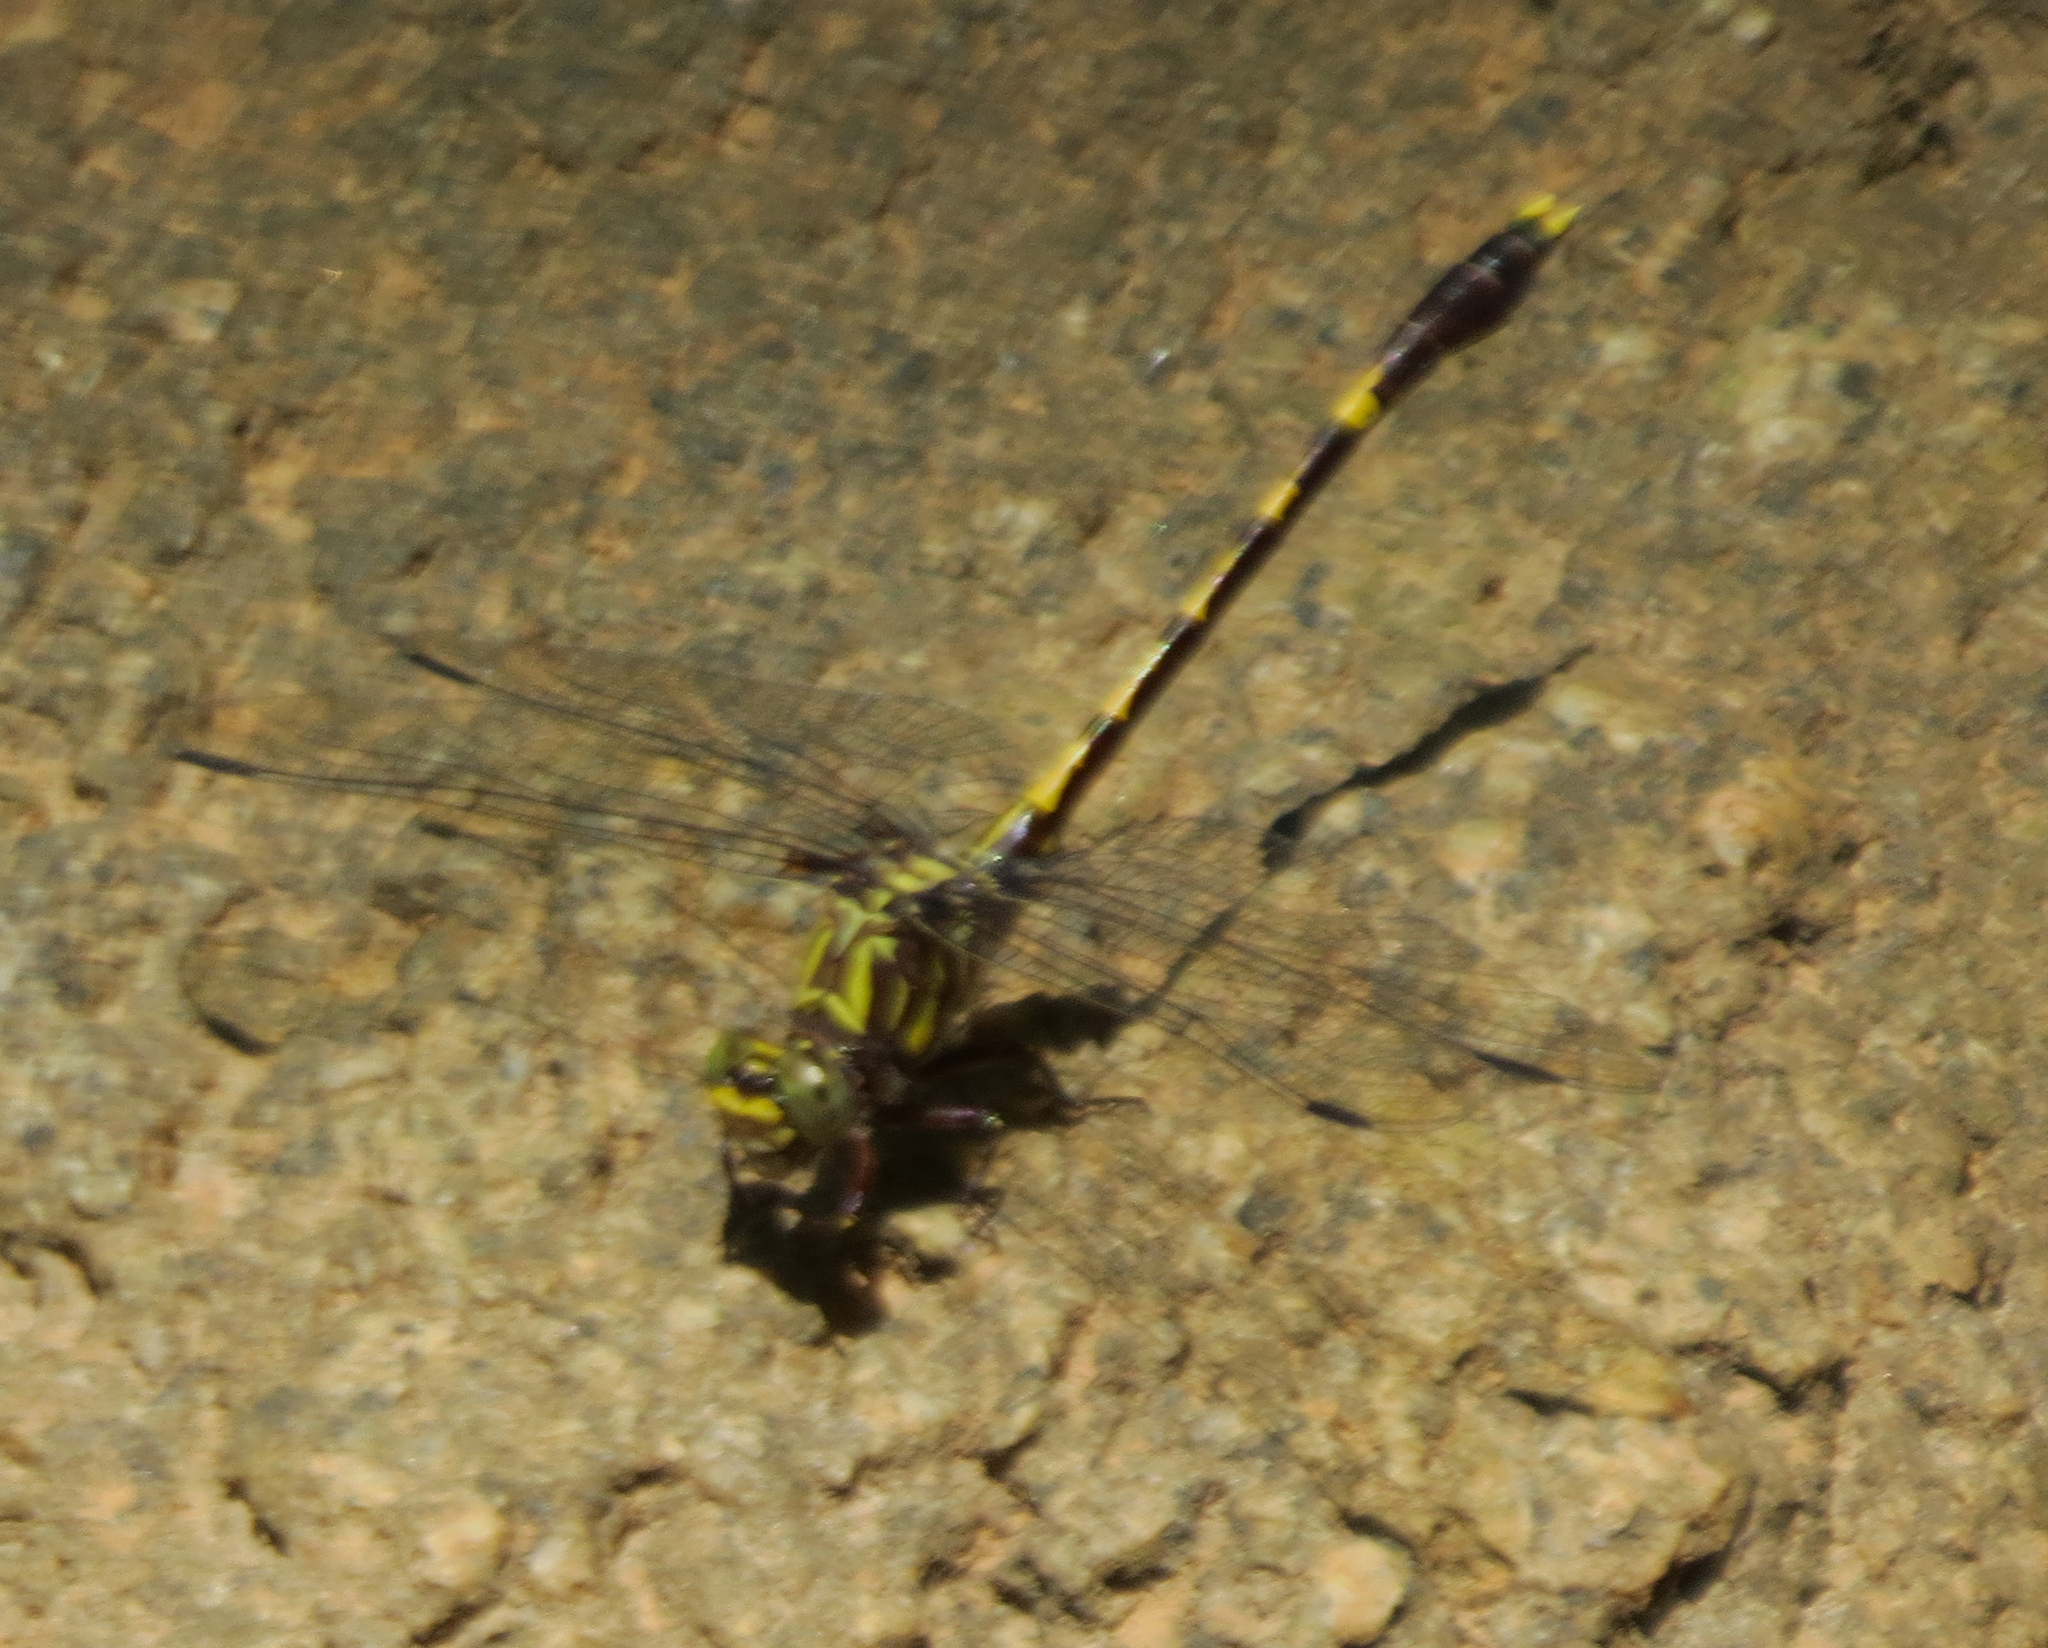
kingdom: Animalia
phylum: Arthropoda
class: Insecta
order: Odonata
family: Gomphidae
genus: Progomphus
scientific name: Progomphus obscurus
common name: Common sanddragon
